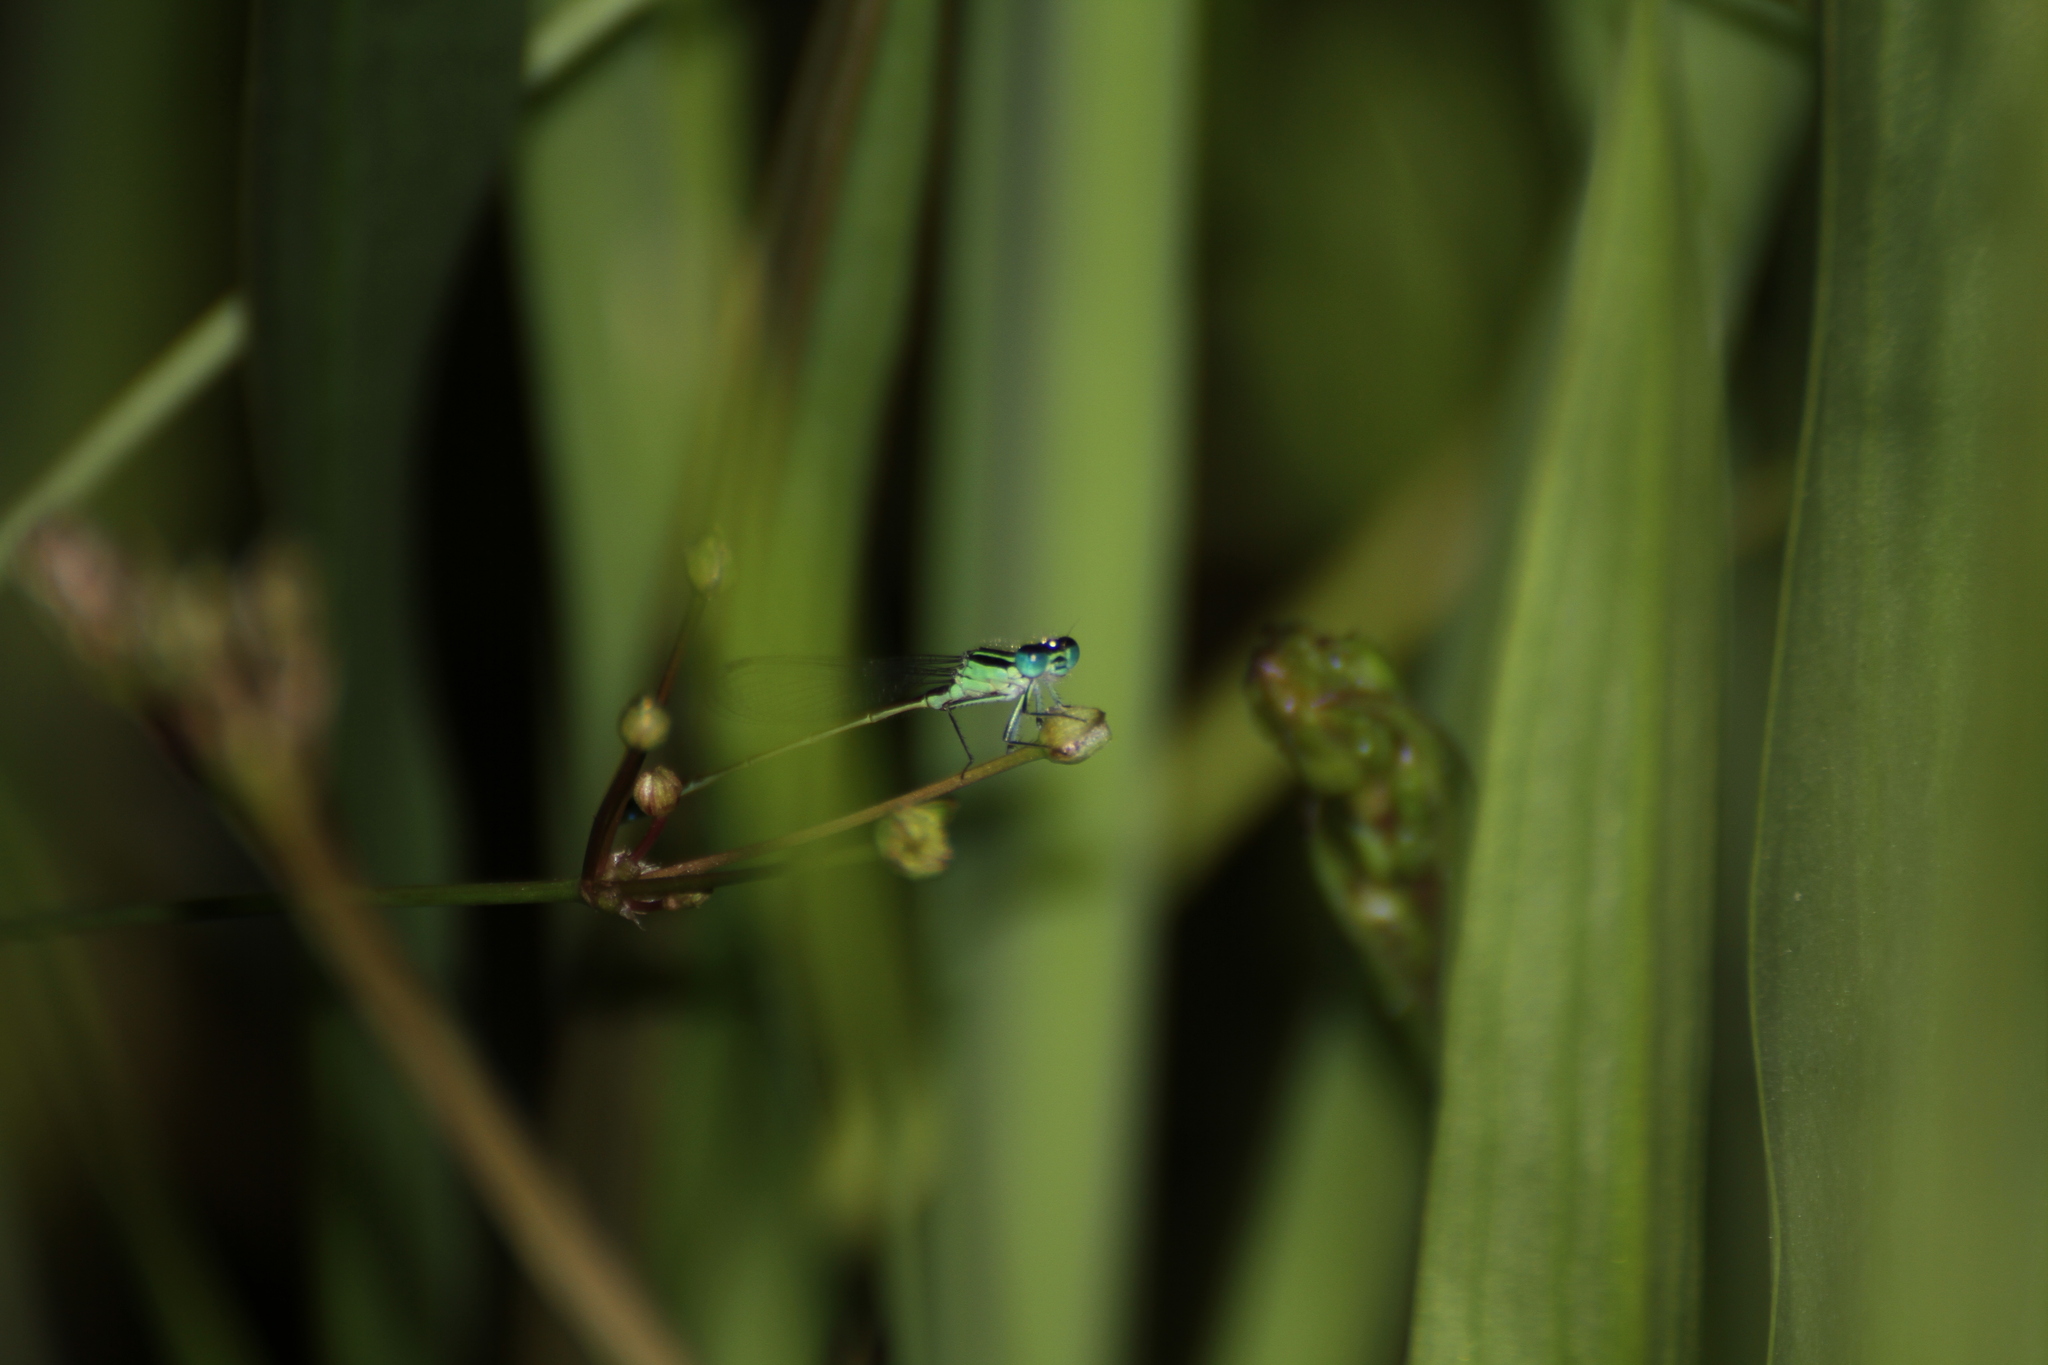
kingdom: Animalia
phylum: Arthropoda
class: Insecta
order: Odonata
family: Coenagrionidae
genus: Ischnura
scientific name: Ischnura elegans
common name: Blue-tailed damselfly
